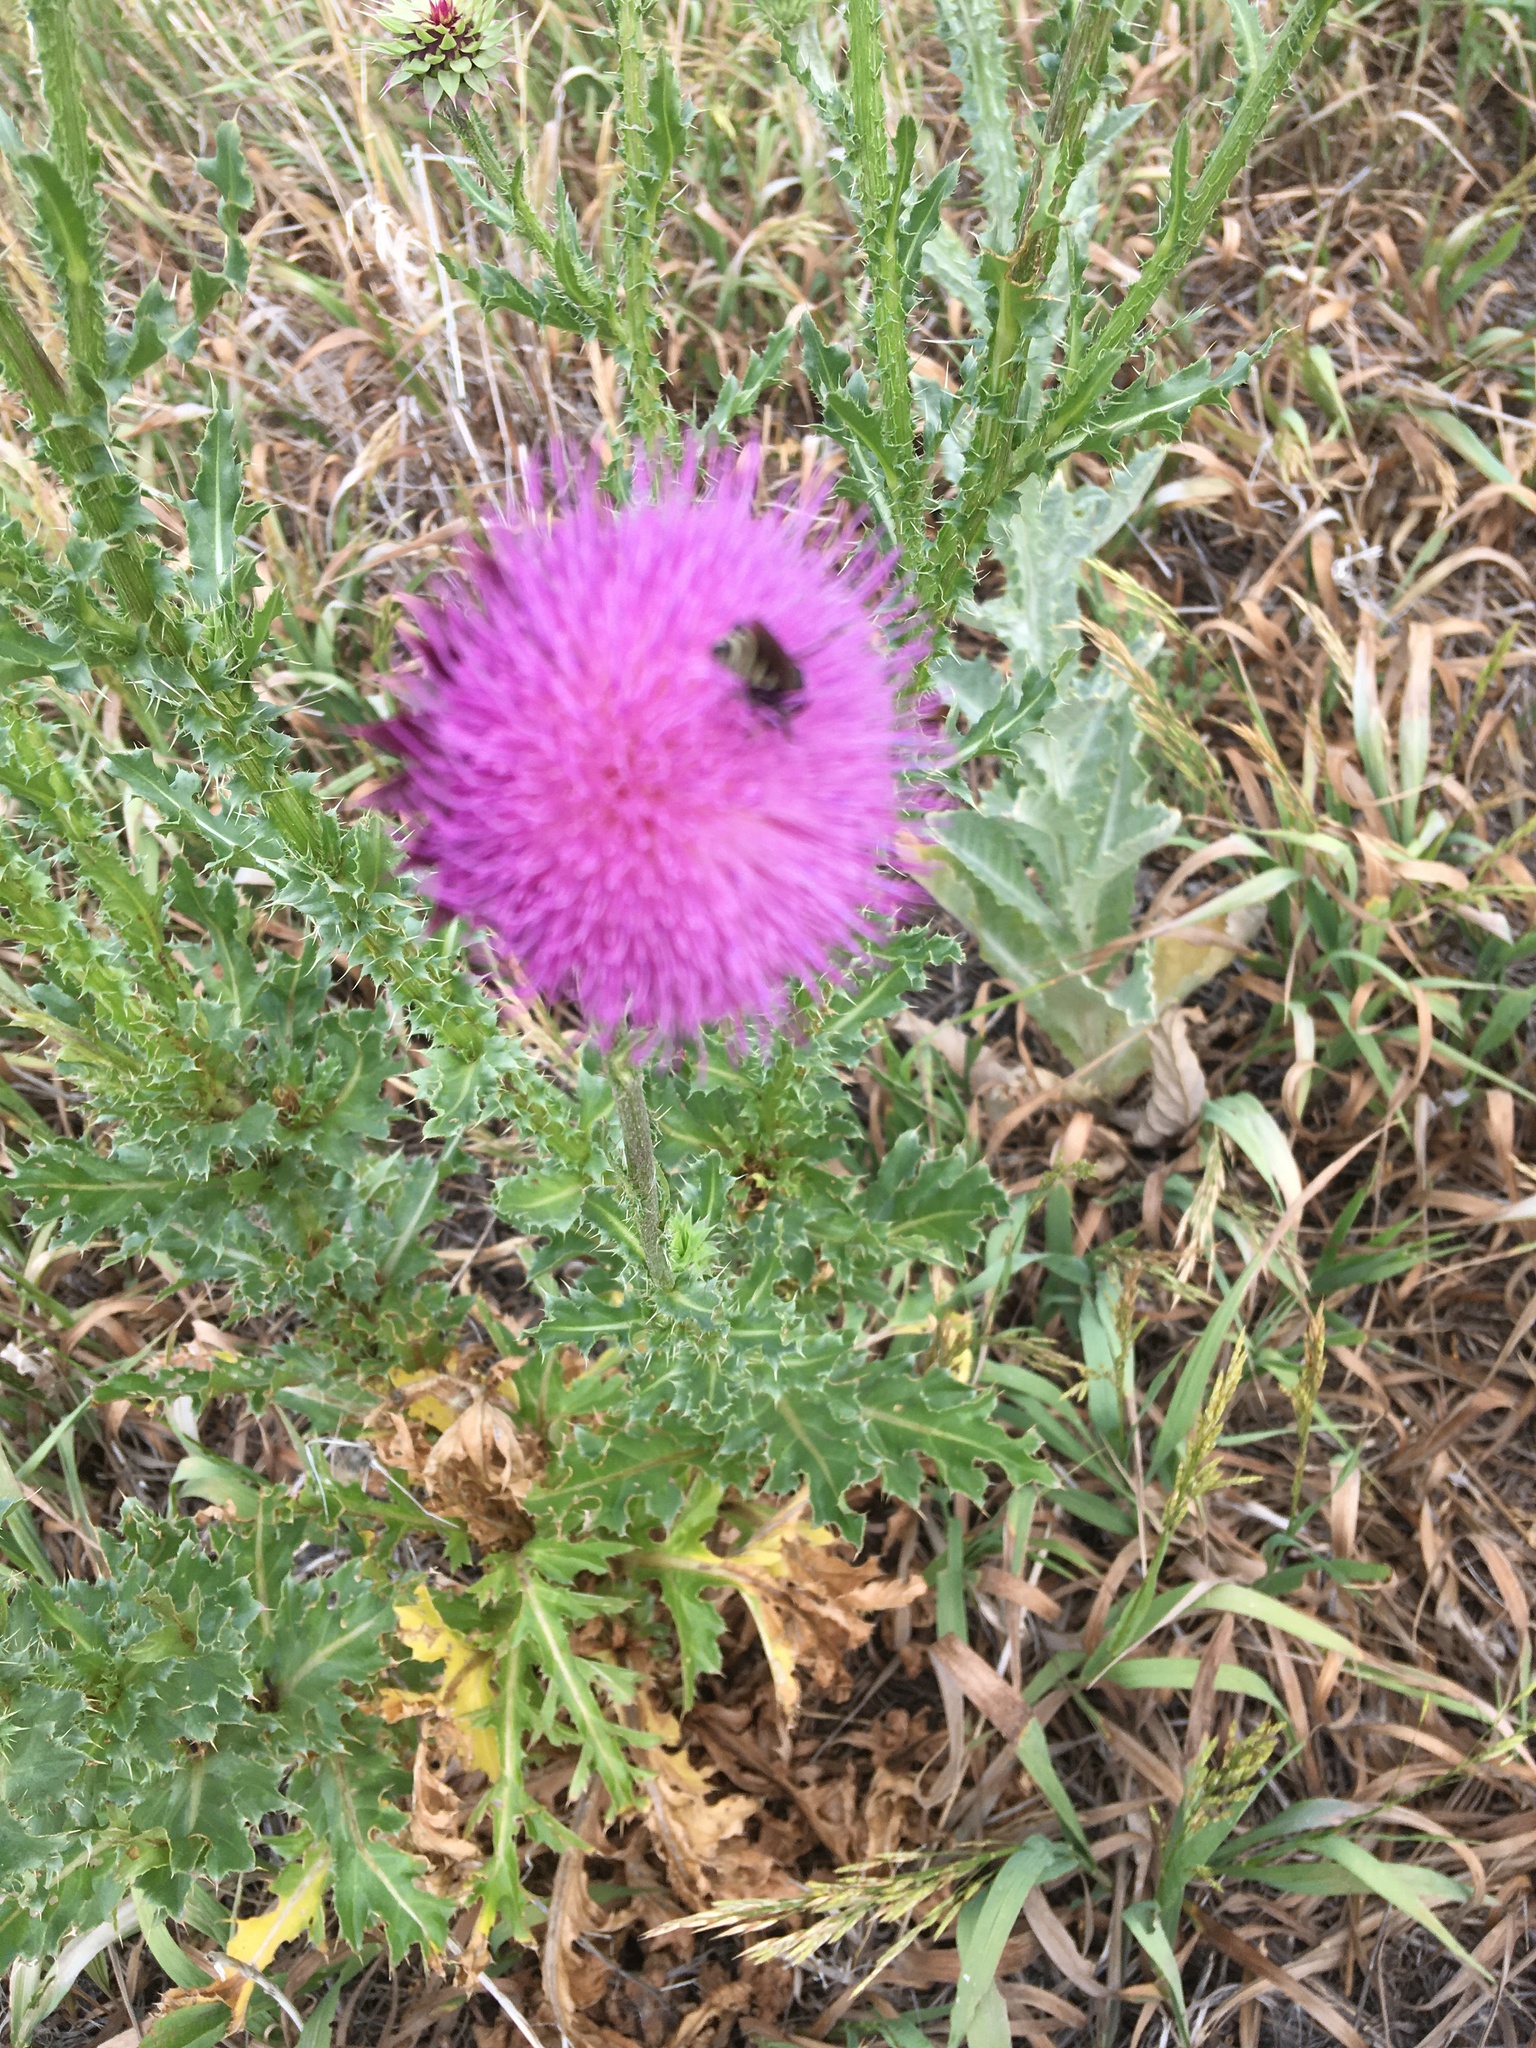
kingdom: Plantae
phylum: Tracheophyta
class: Magnoliopsida
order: Asterales
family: Asteraceae
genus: Carduus
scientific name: Carduus nutans
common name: Musk thistle
